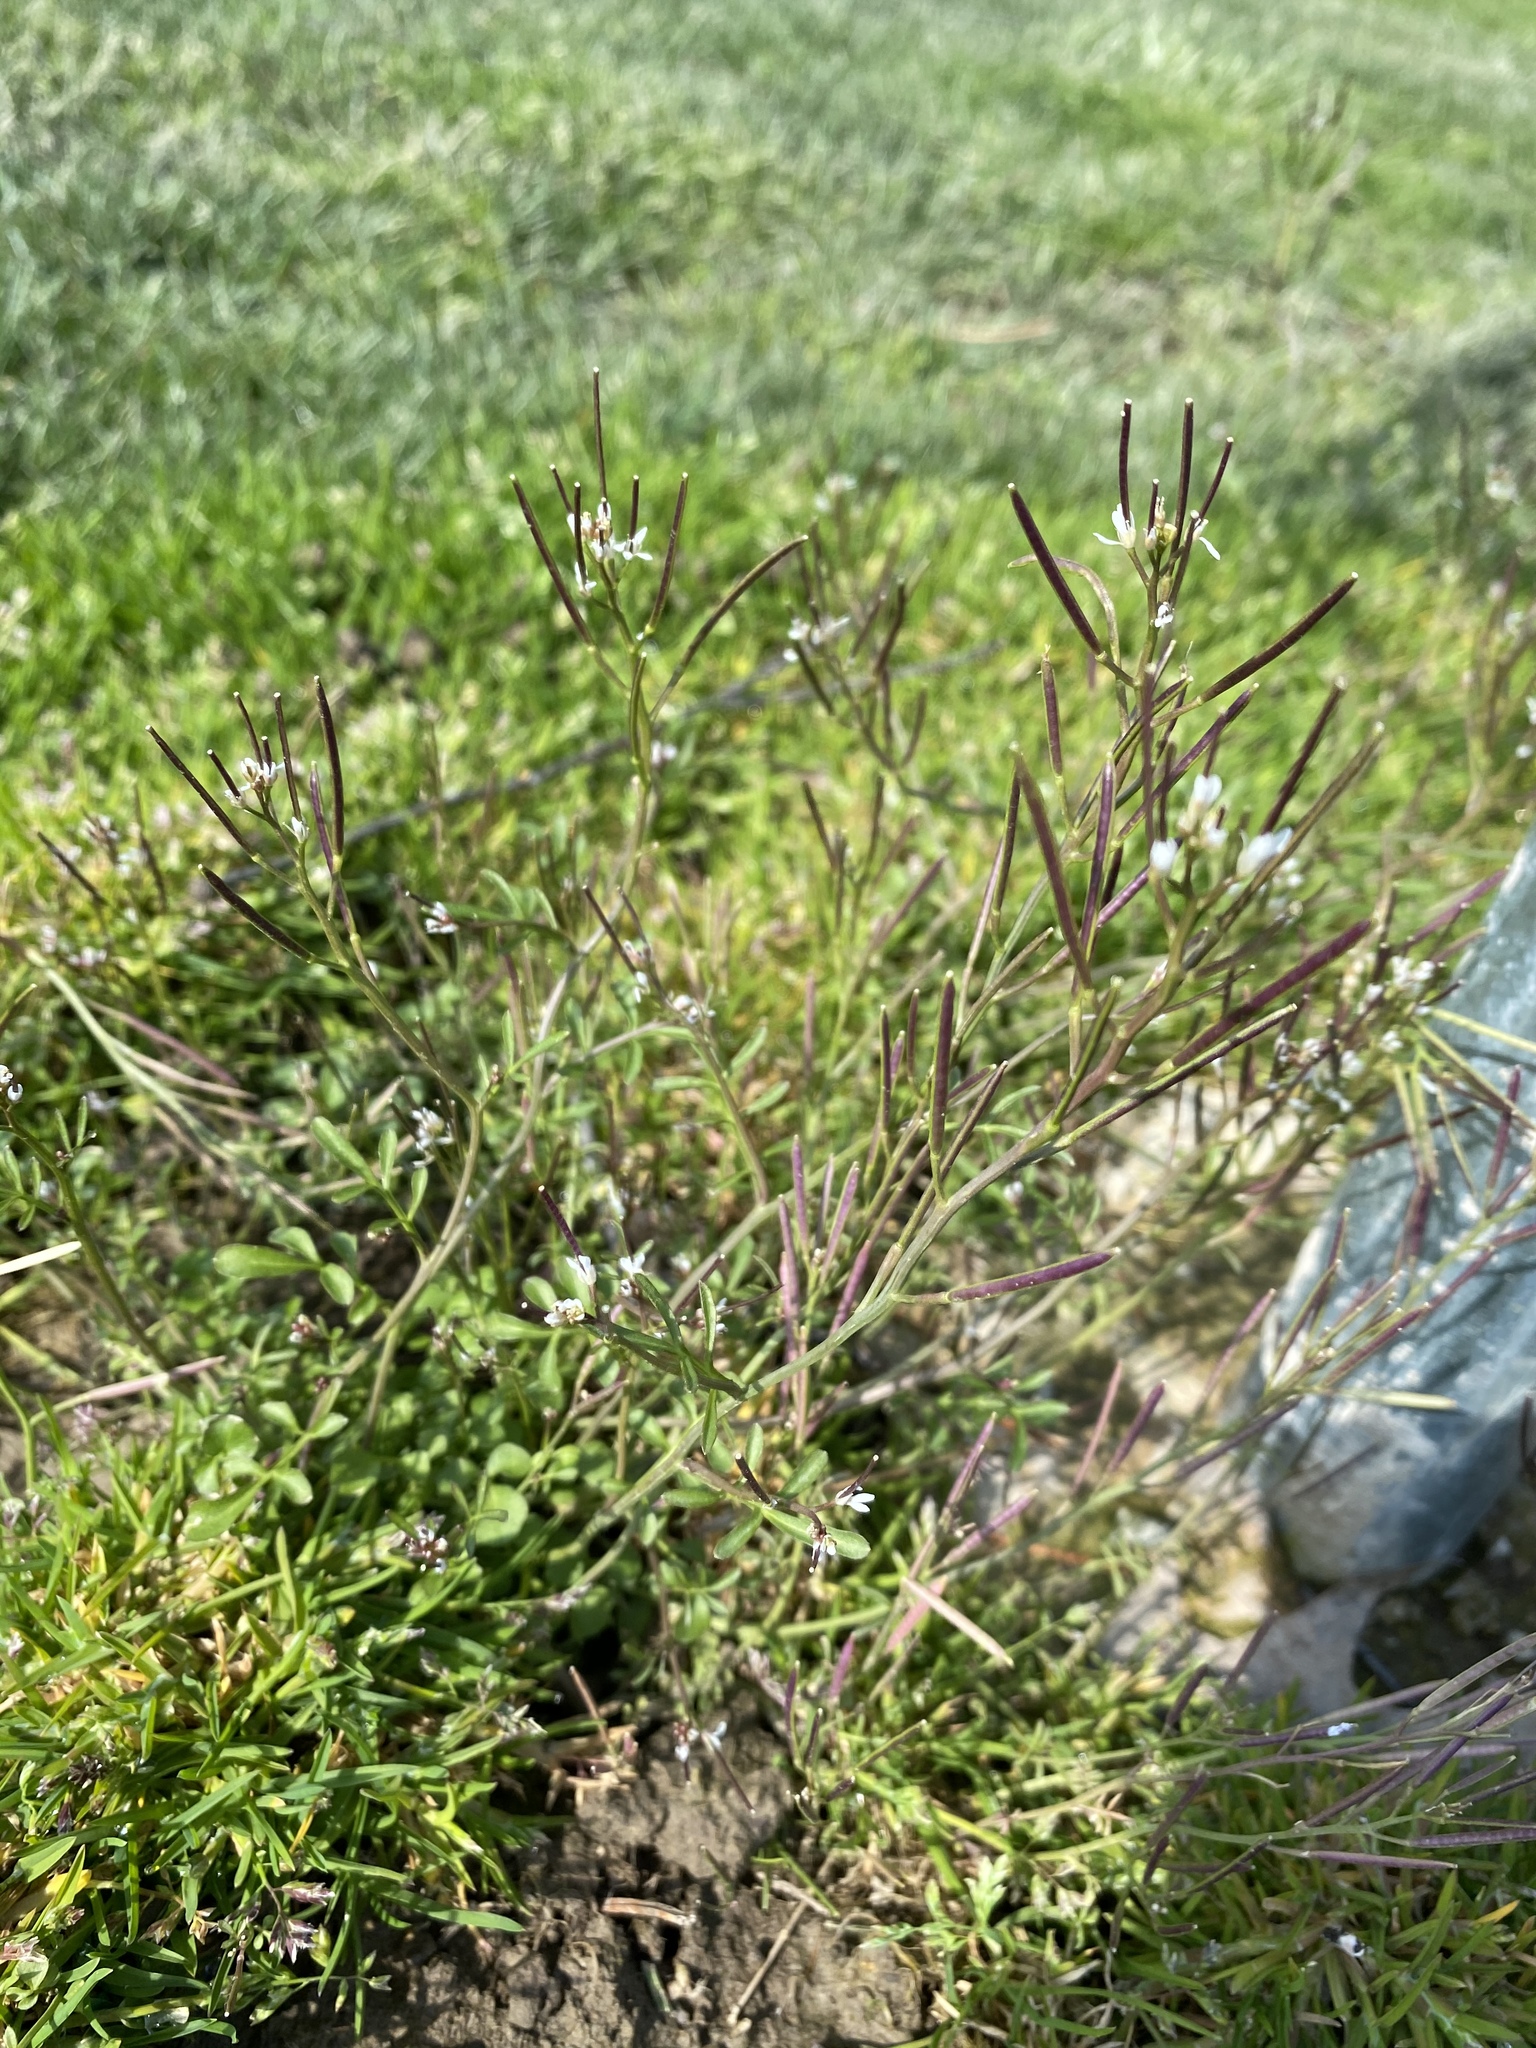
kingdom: Plantae
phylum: Tracheophyta
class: Magnoliopsida
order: Brassicales
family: Brassicaceae
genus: Cardamine
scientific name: Cardamine hirsuta
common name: Hairy bittercress
